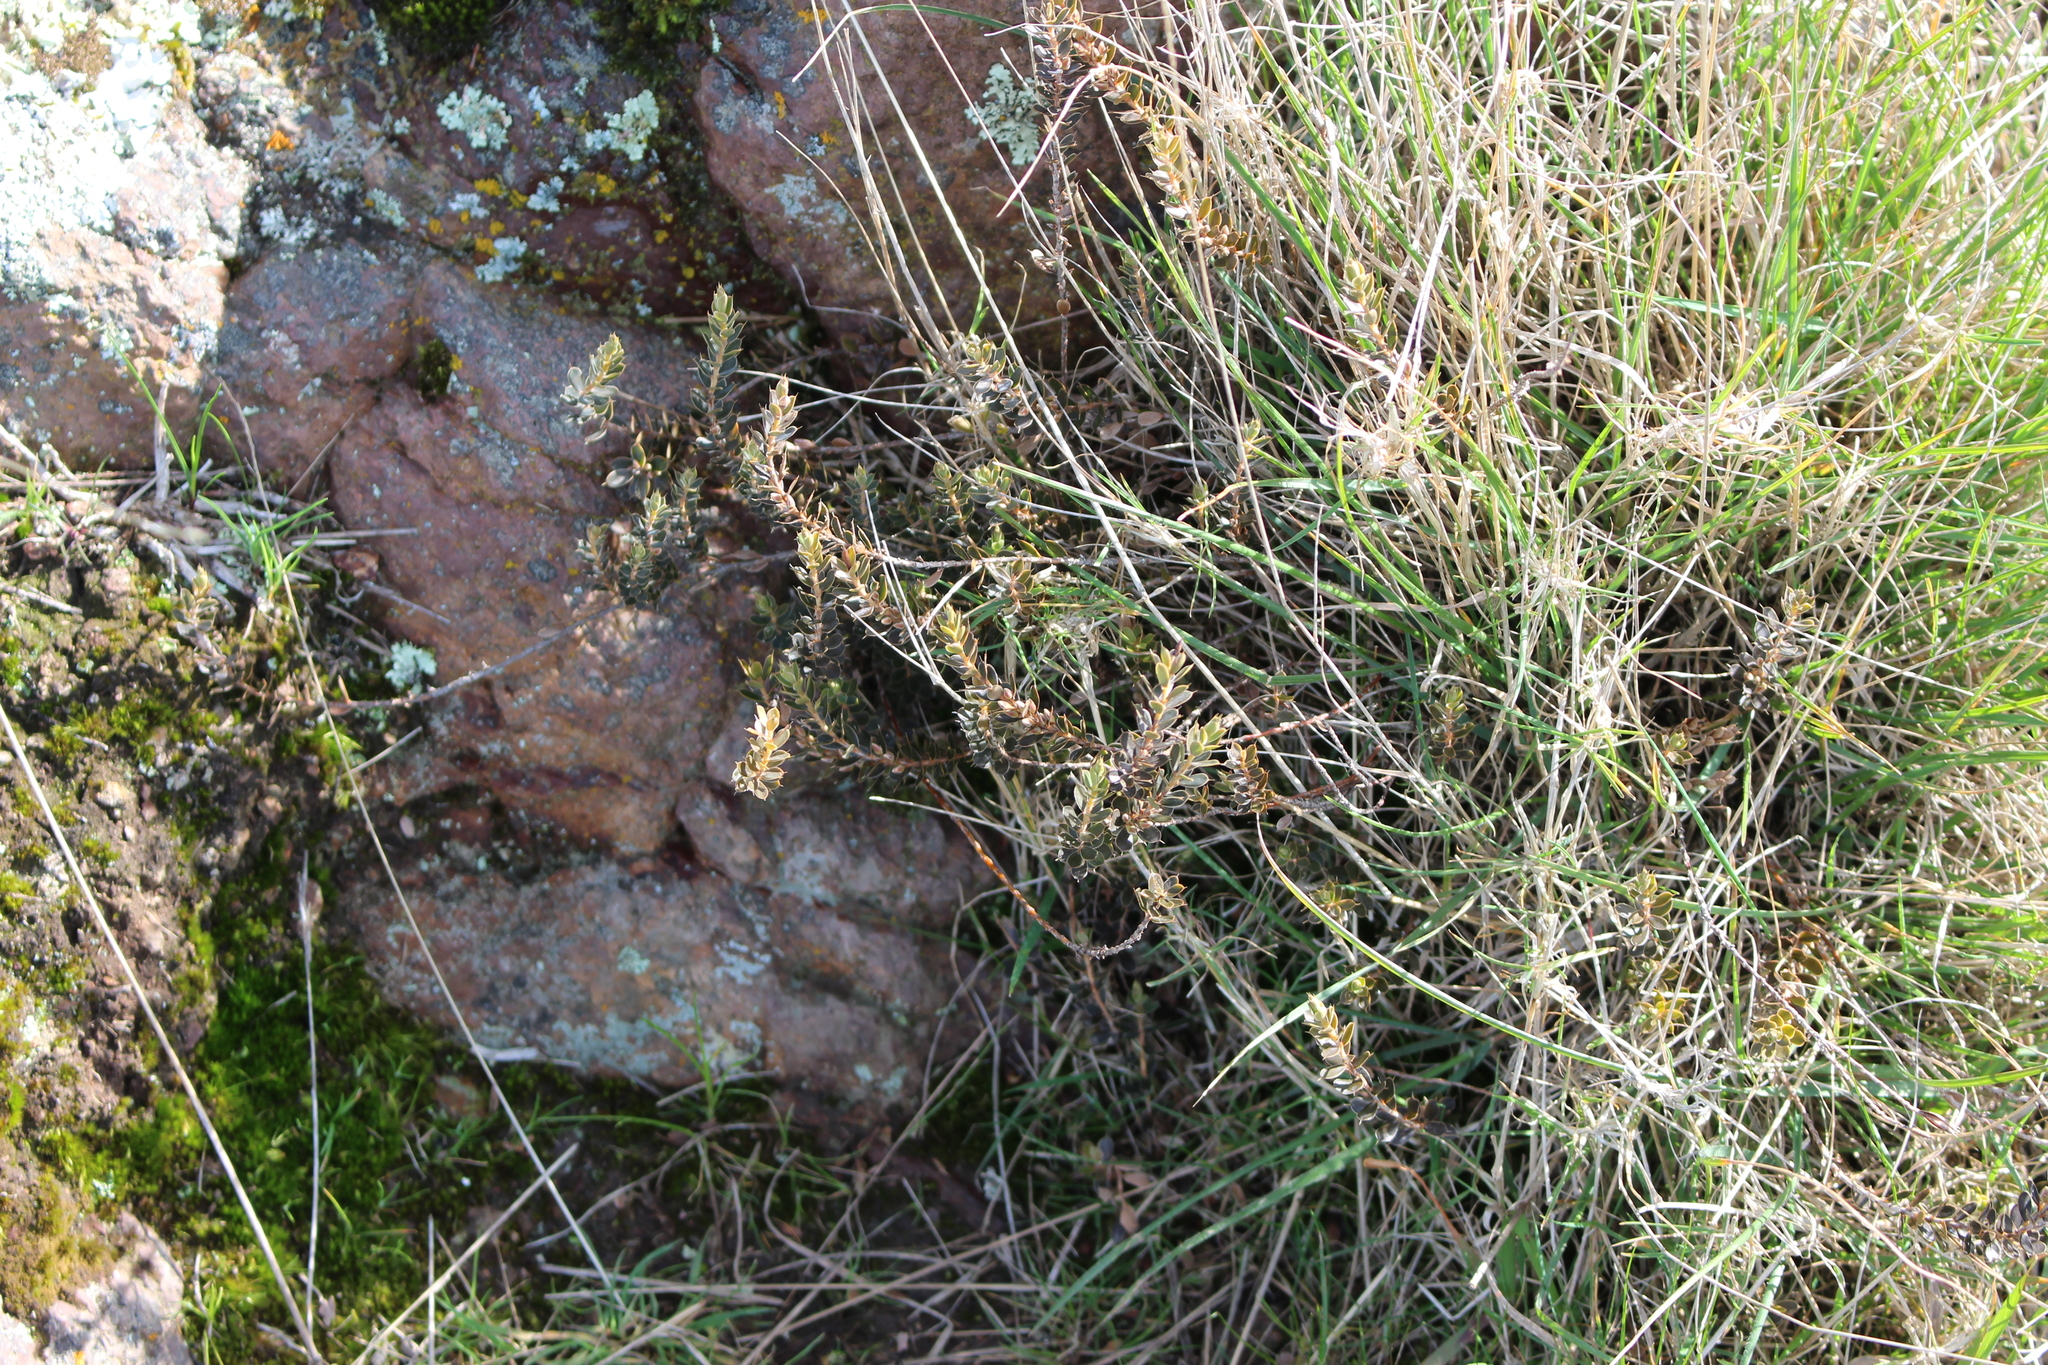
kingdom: Plantae
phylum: Tracheophyta
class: Magnoliopsida
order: Ericales
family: Ericaceae
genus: Styphelia
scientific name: Styphelia nesophila
